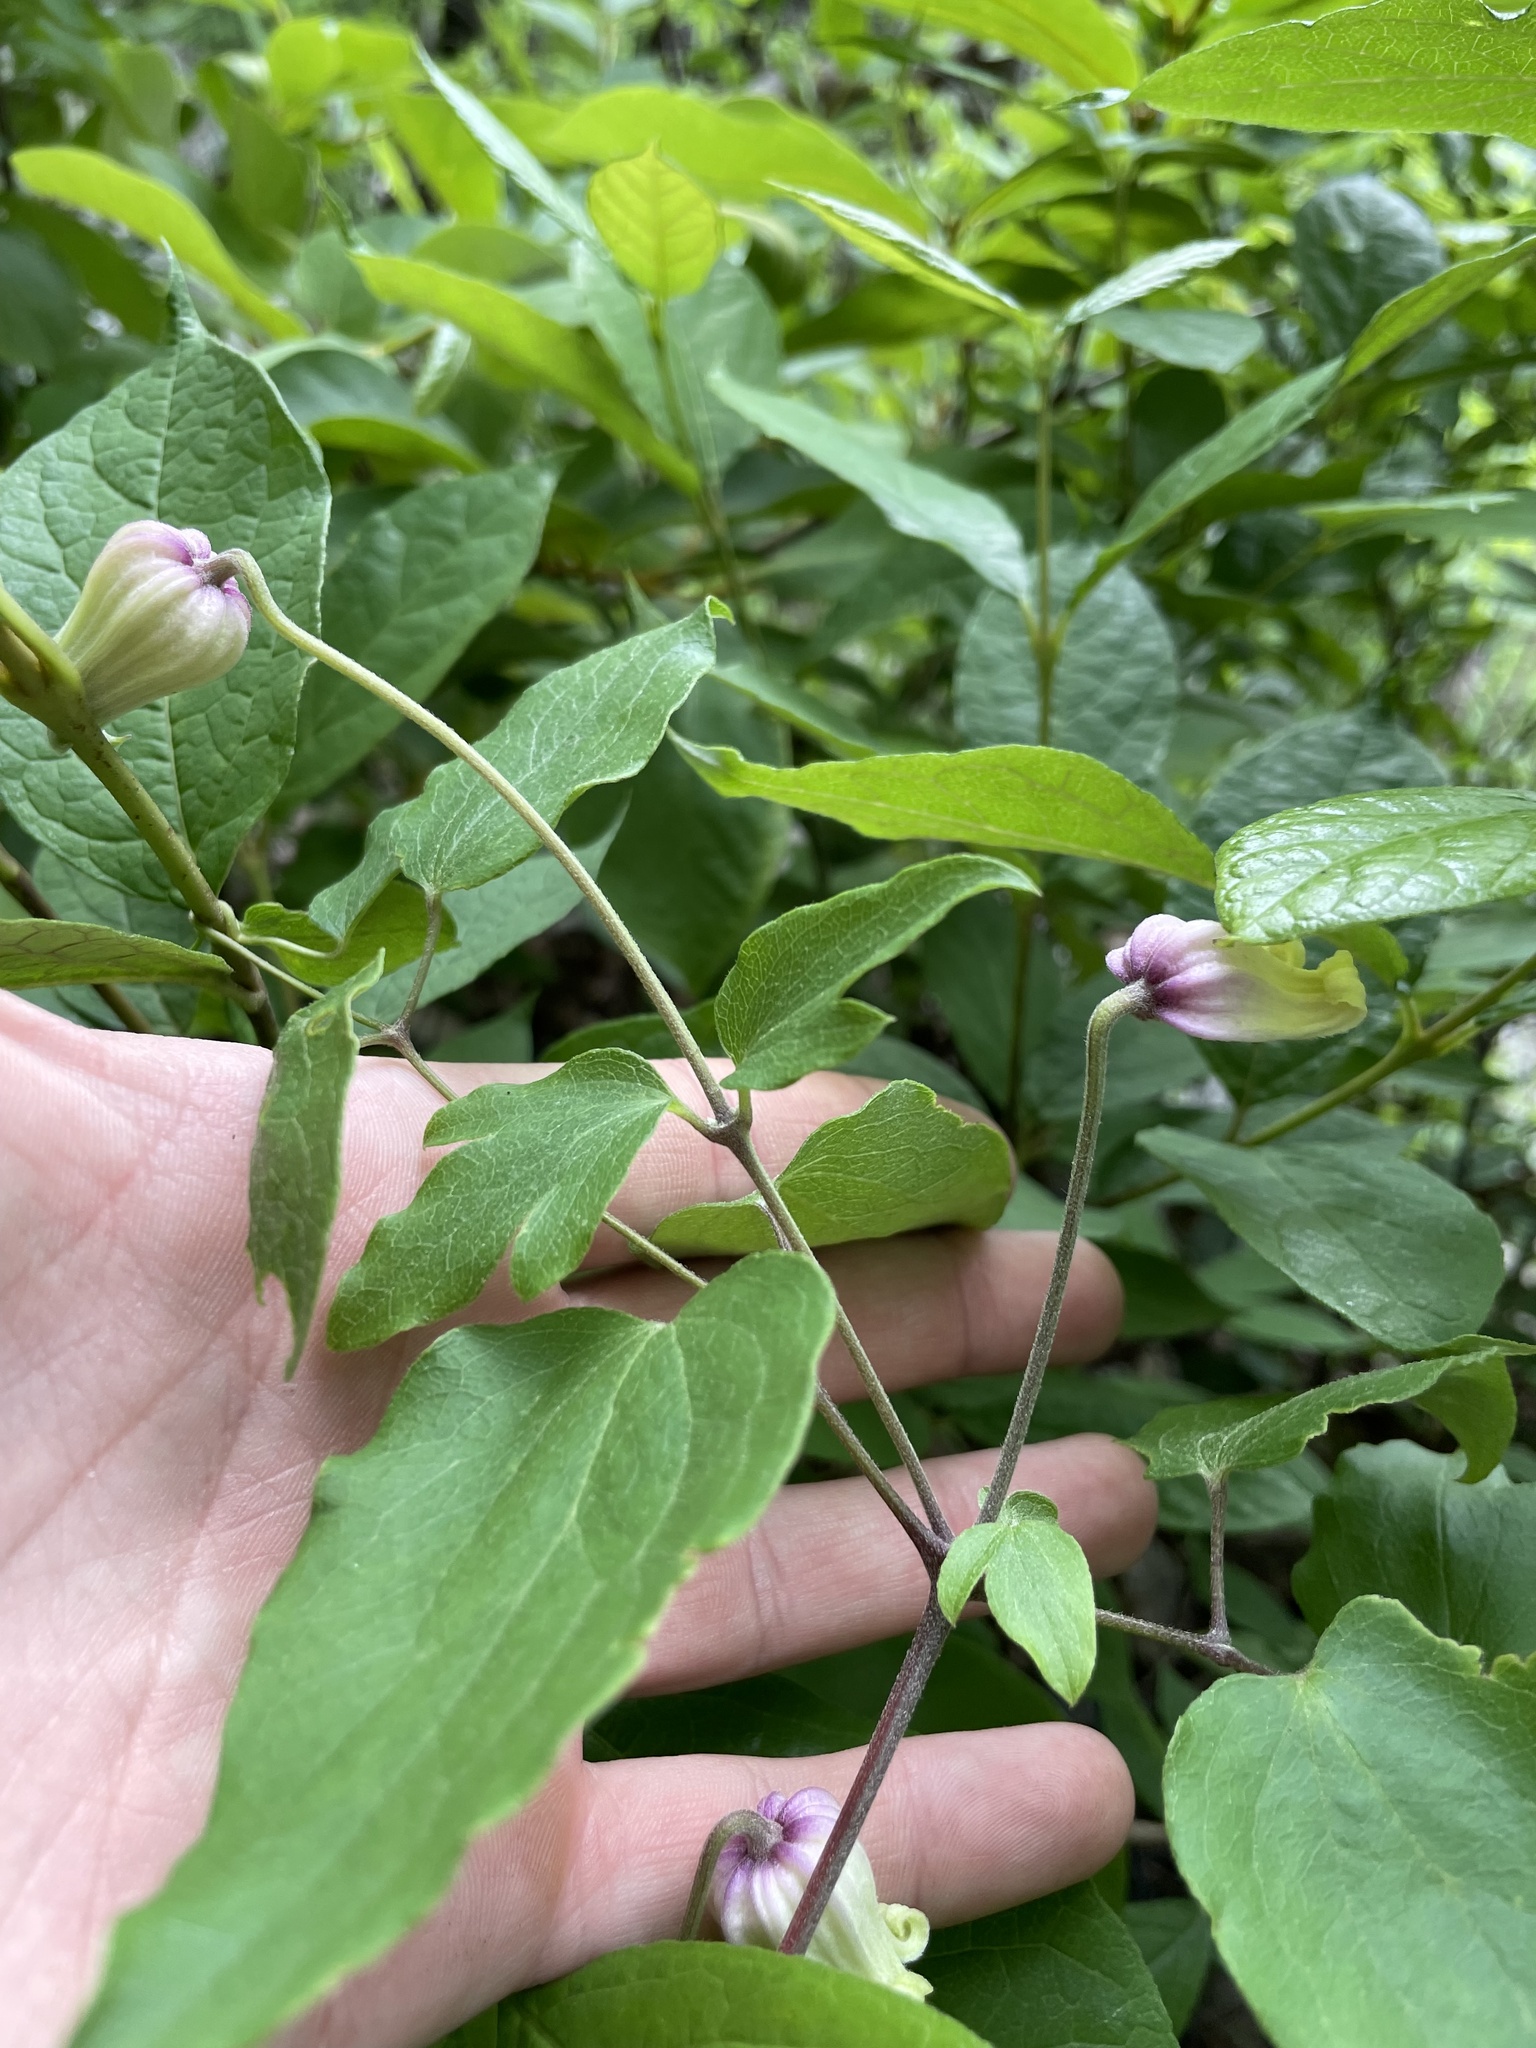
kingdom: Plantae
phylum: Tracheophyta
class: Magnoliopsida
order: Ranunculales
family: Ranunculaceae
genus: Clematis
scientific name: Clematis reticulata
